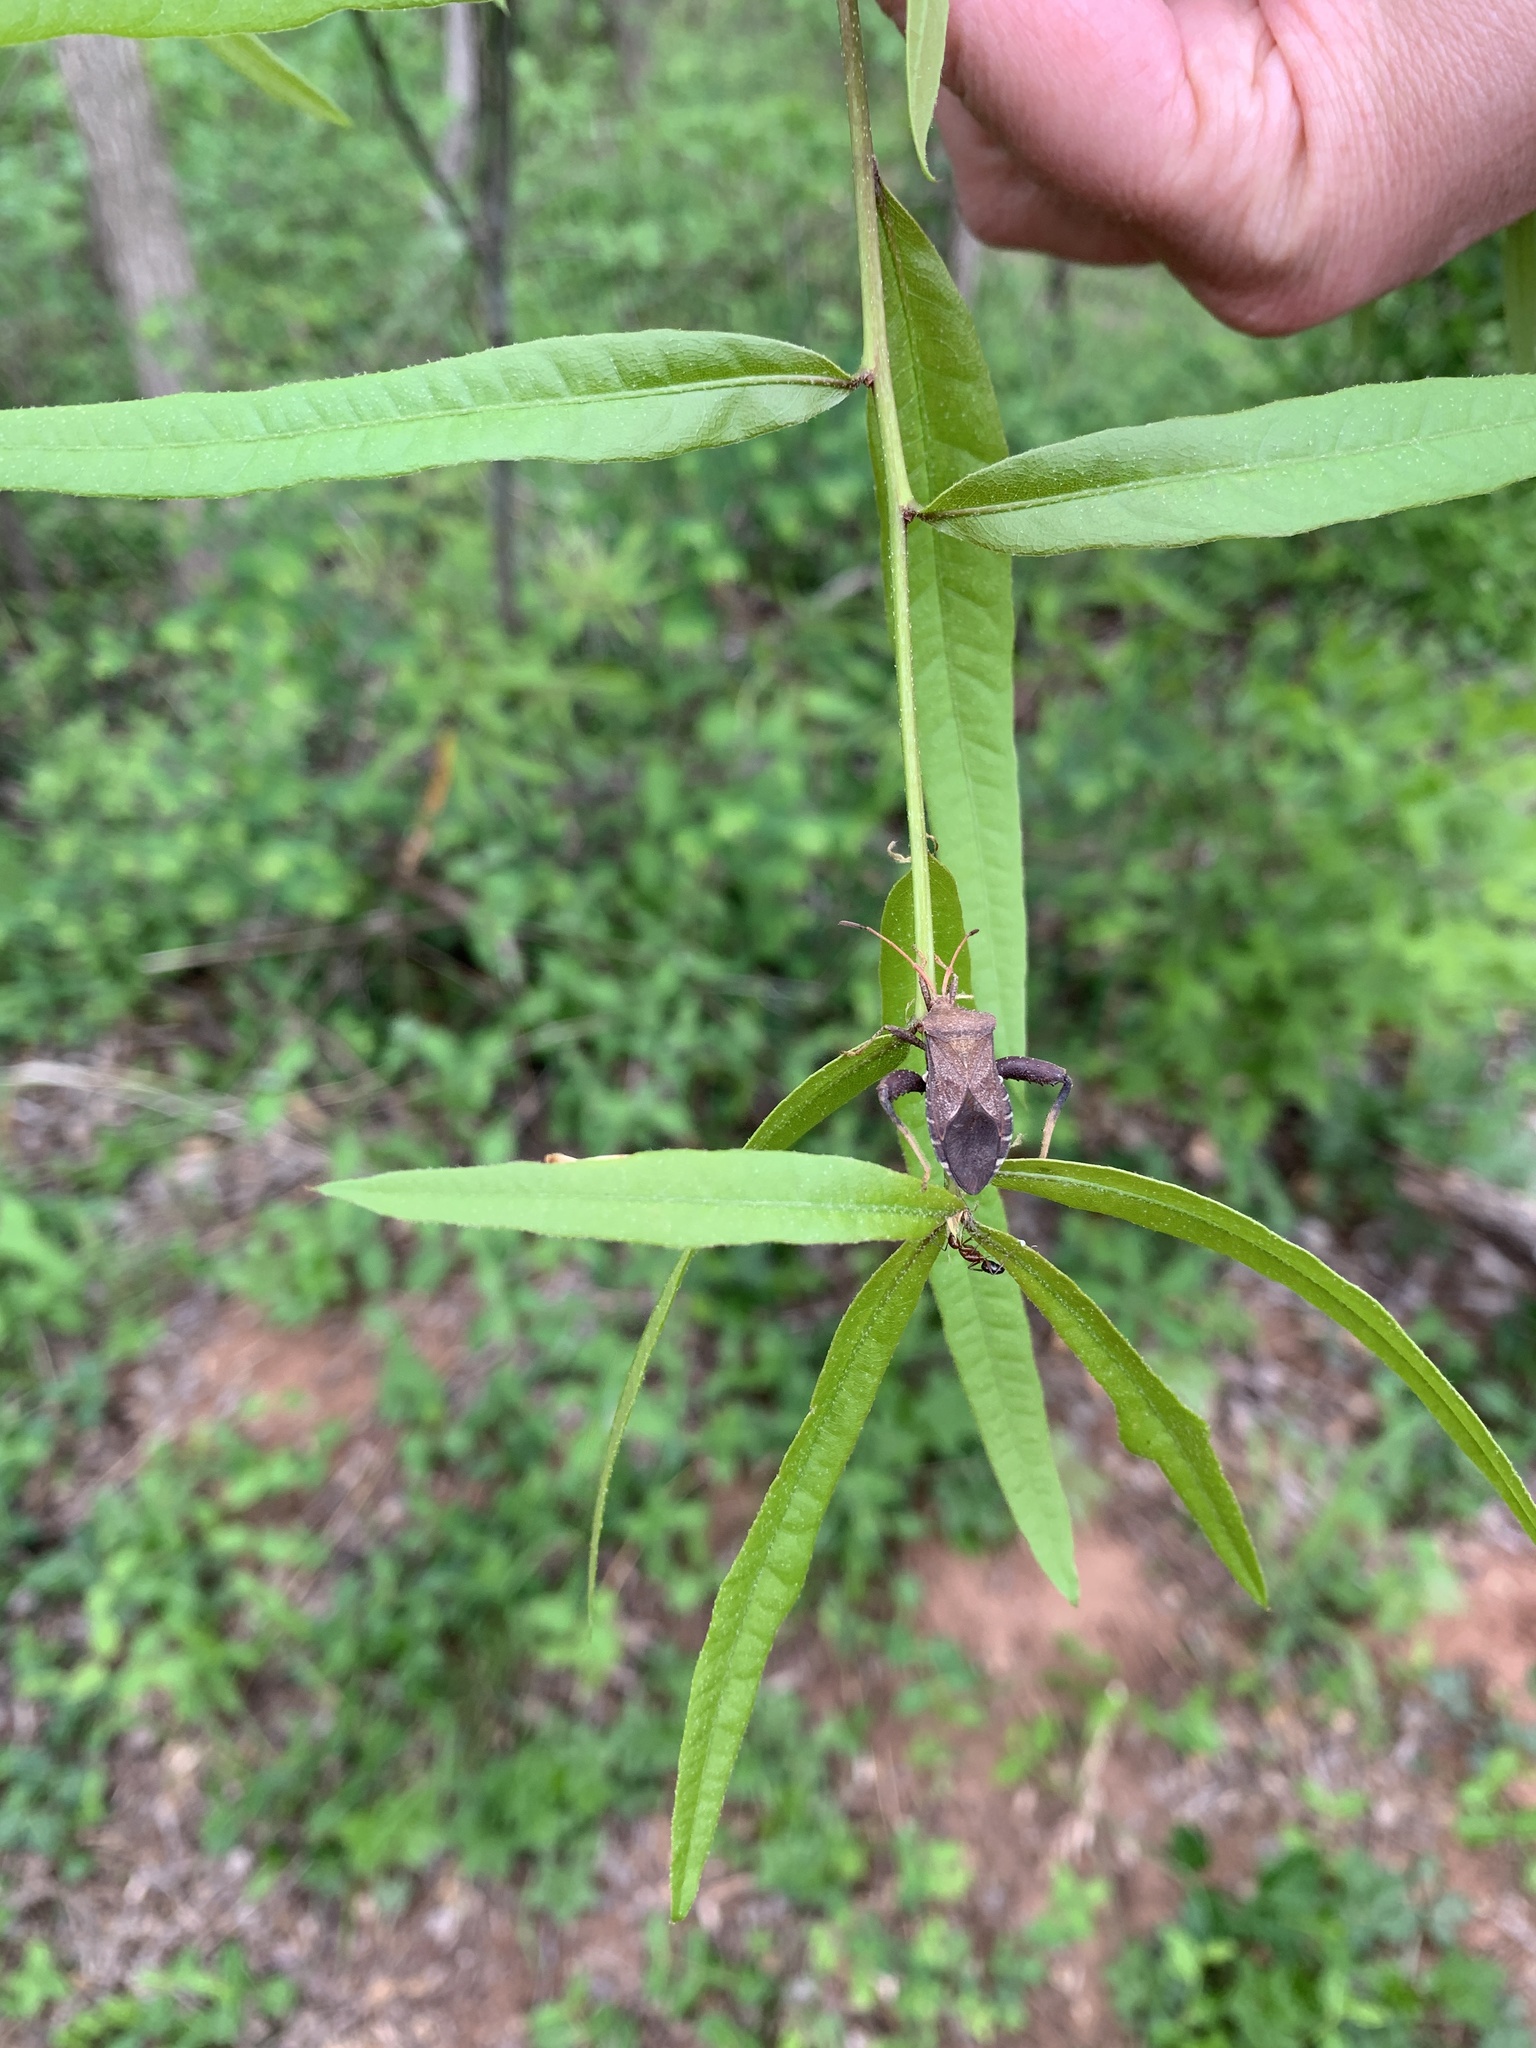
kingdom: Animalia
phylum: Arthropoda
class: Insecta
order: Hemiptera
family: Coreidae
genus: Euthochtha
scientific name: Euthochtha galeator
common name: Helmeted squash bug
